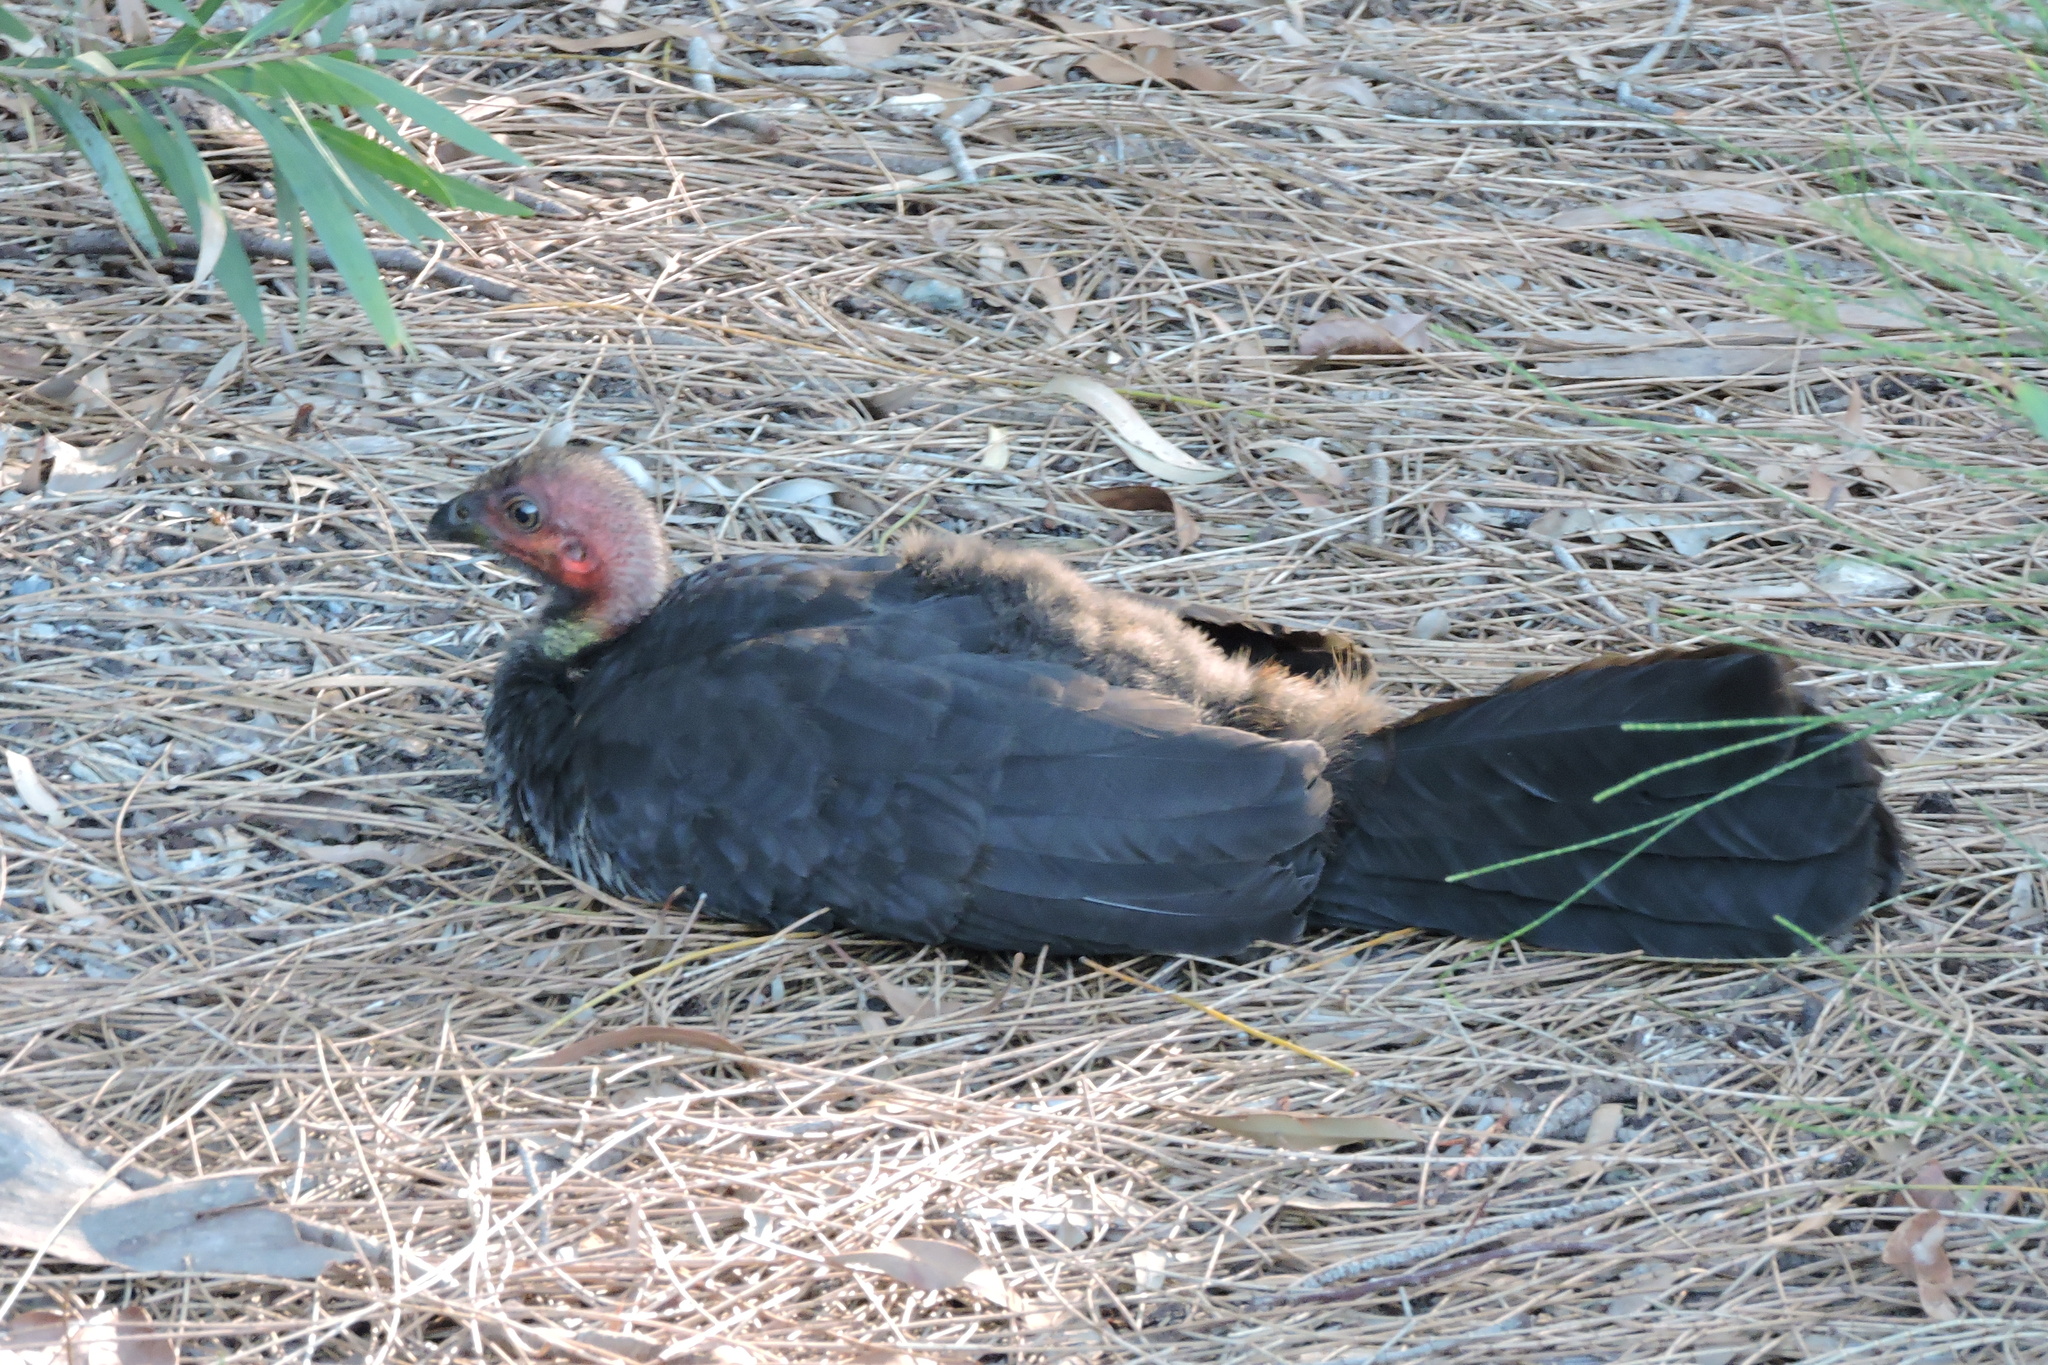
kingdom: Animalia
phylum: Chordata
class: Aves
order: Galliformes
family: Megapodiidae
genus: Alectura
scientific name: Alectura lathami
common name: Australian brushturkey
